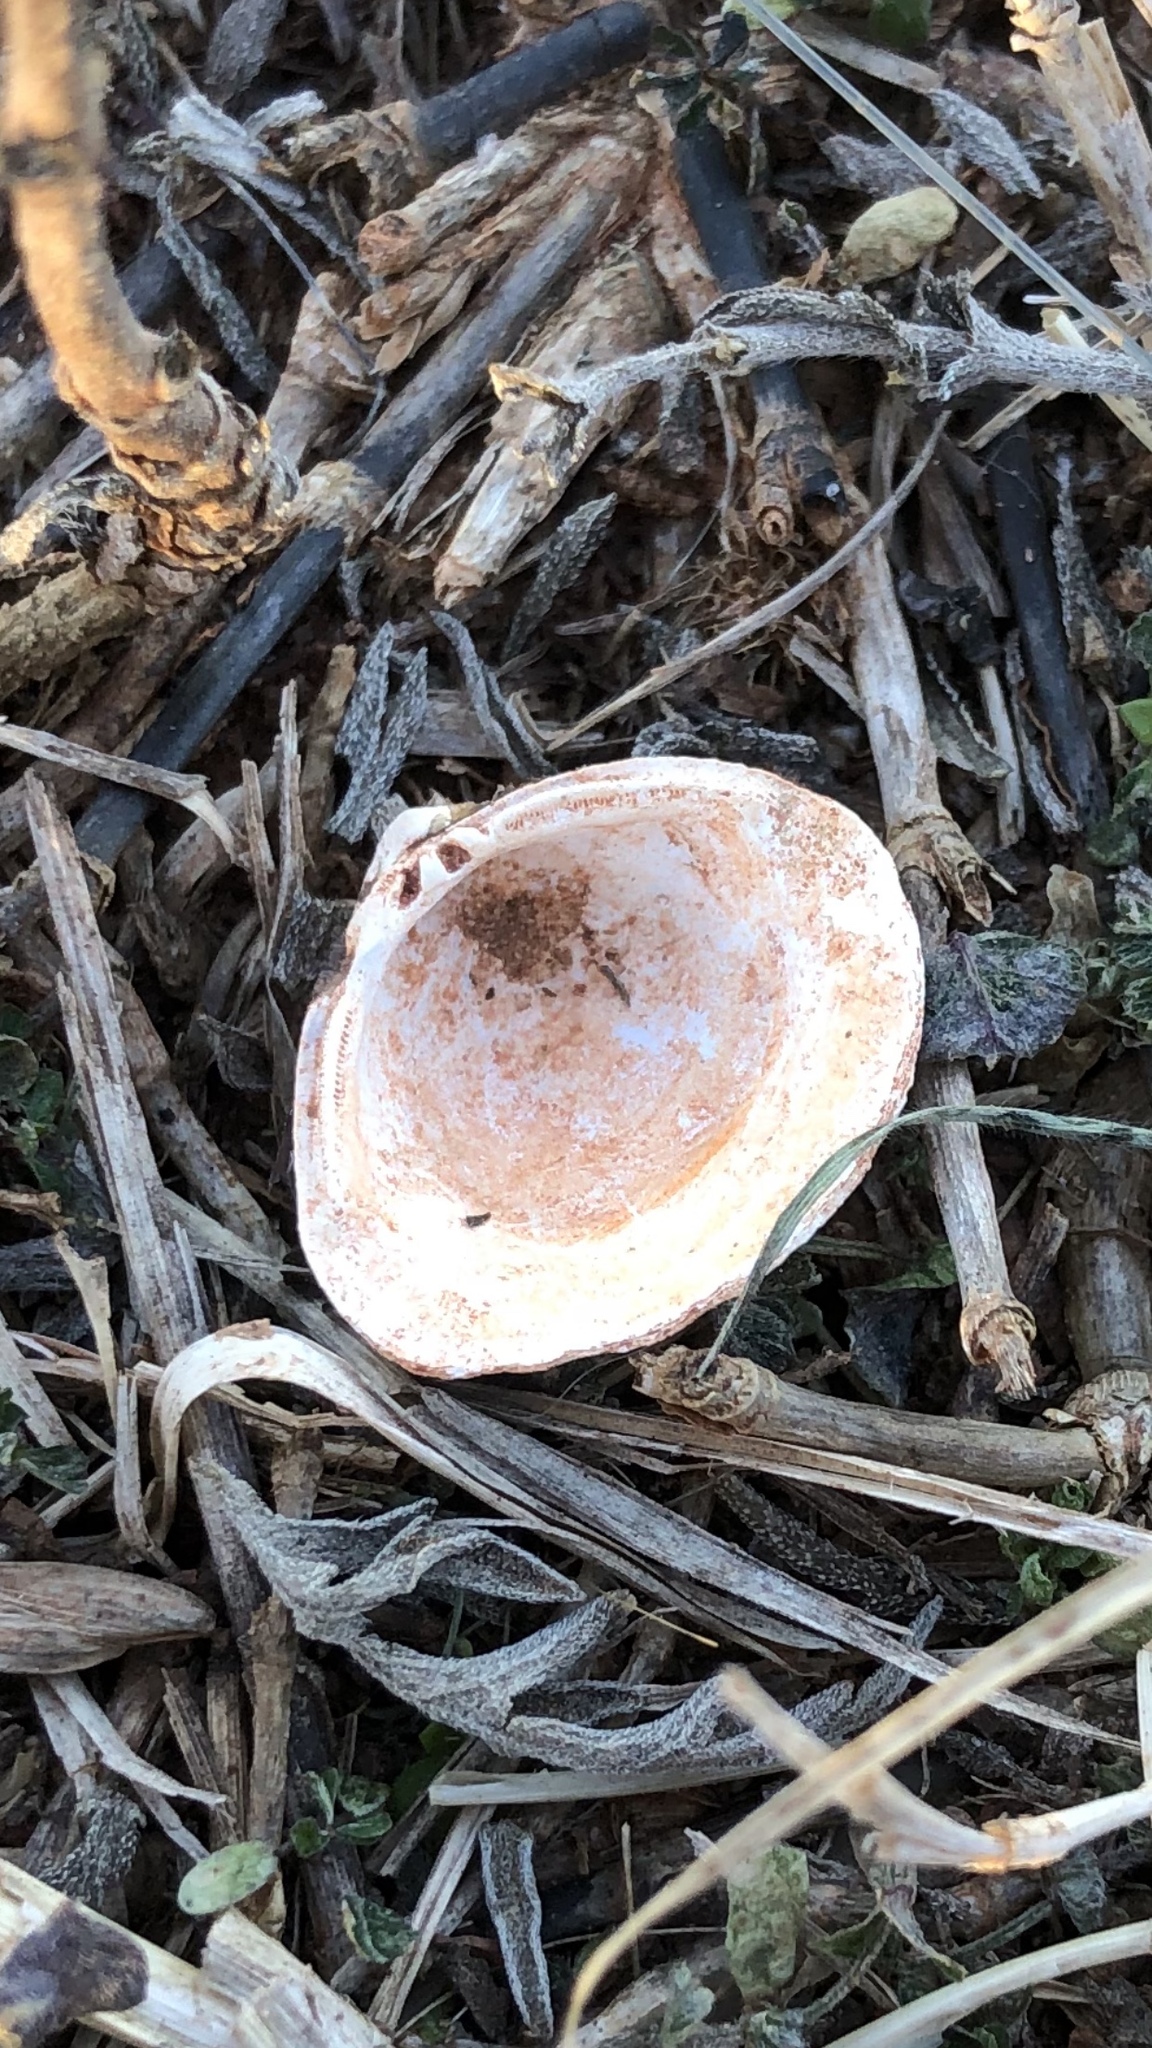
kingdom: Animalia
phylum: Mollusca
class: Bivalvia
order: Venerida
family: Cyrenidae
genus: Corbicula
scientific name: Corbicula fluminea
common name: Asian clam
